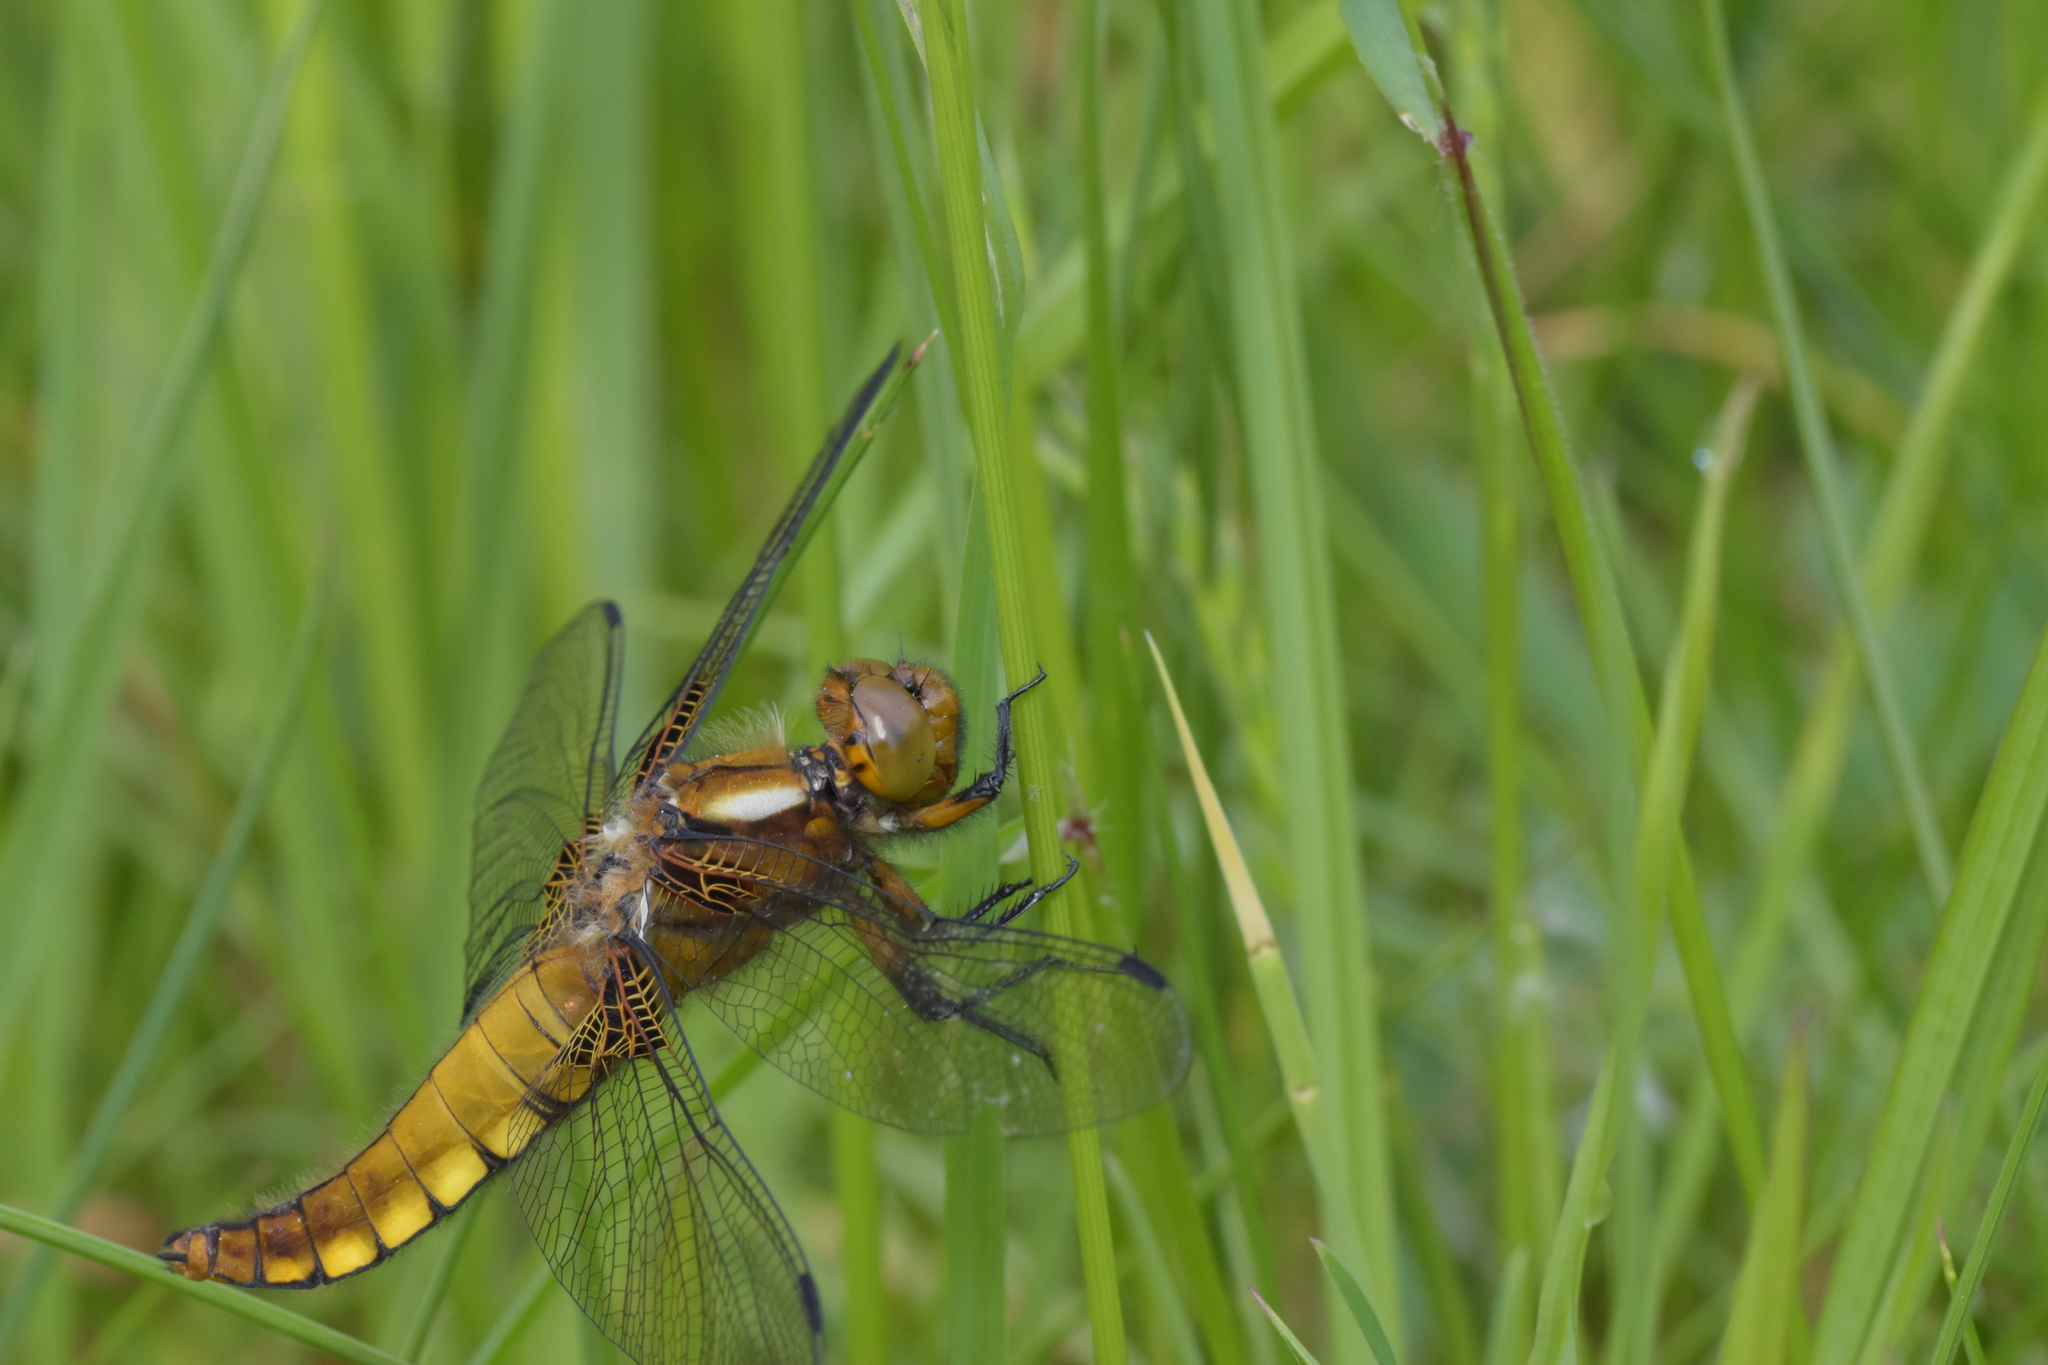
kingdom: Animalia
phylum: Arthropoda
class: Insecta
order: Odonata
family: Libellulidae
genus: Libellula
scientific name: Libellula depressa
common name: Broad-bodied chaser
